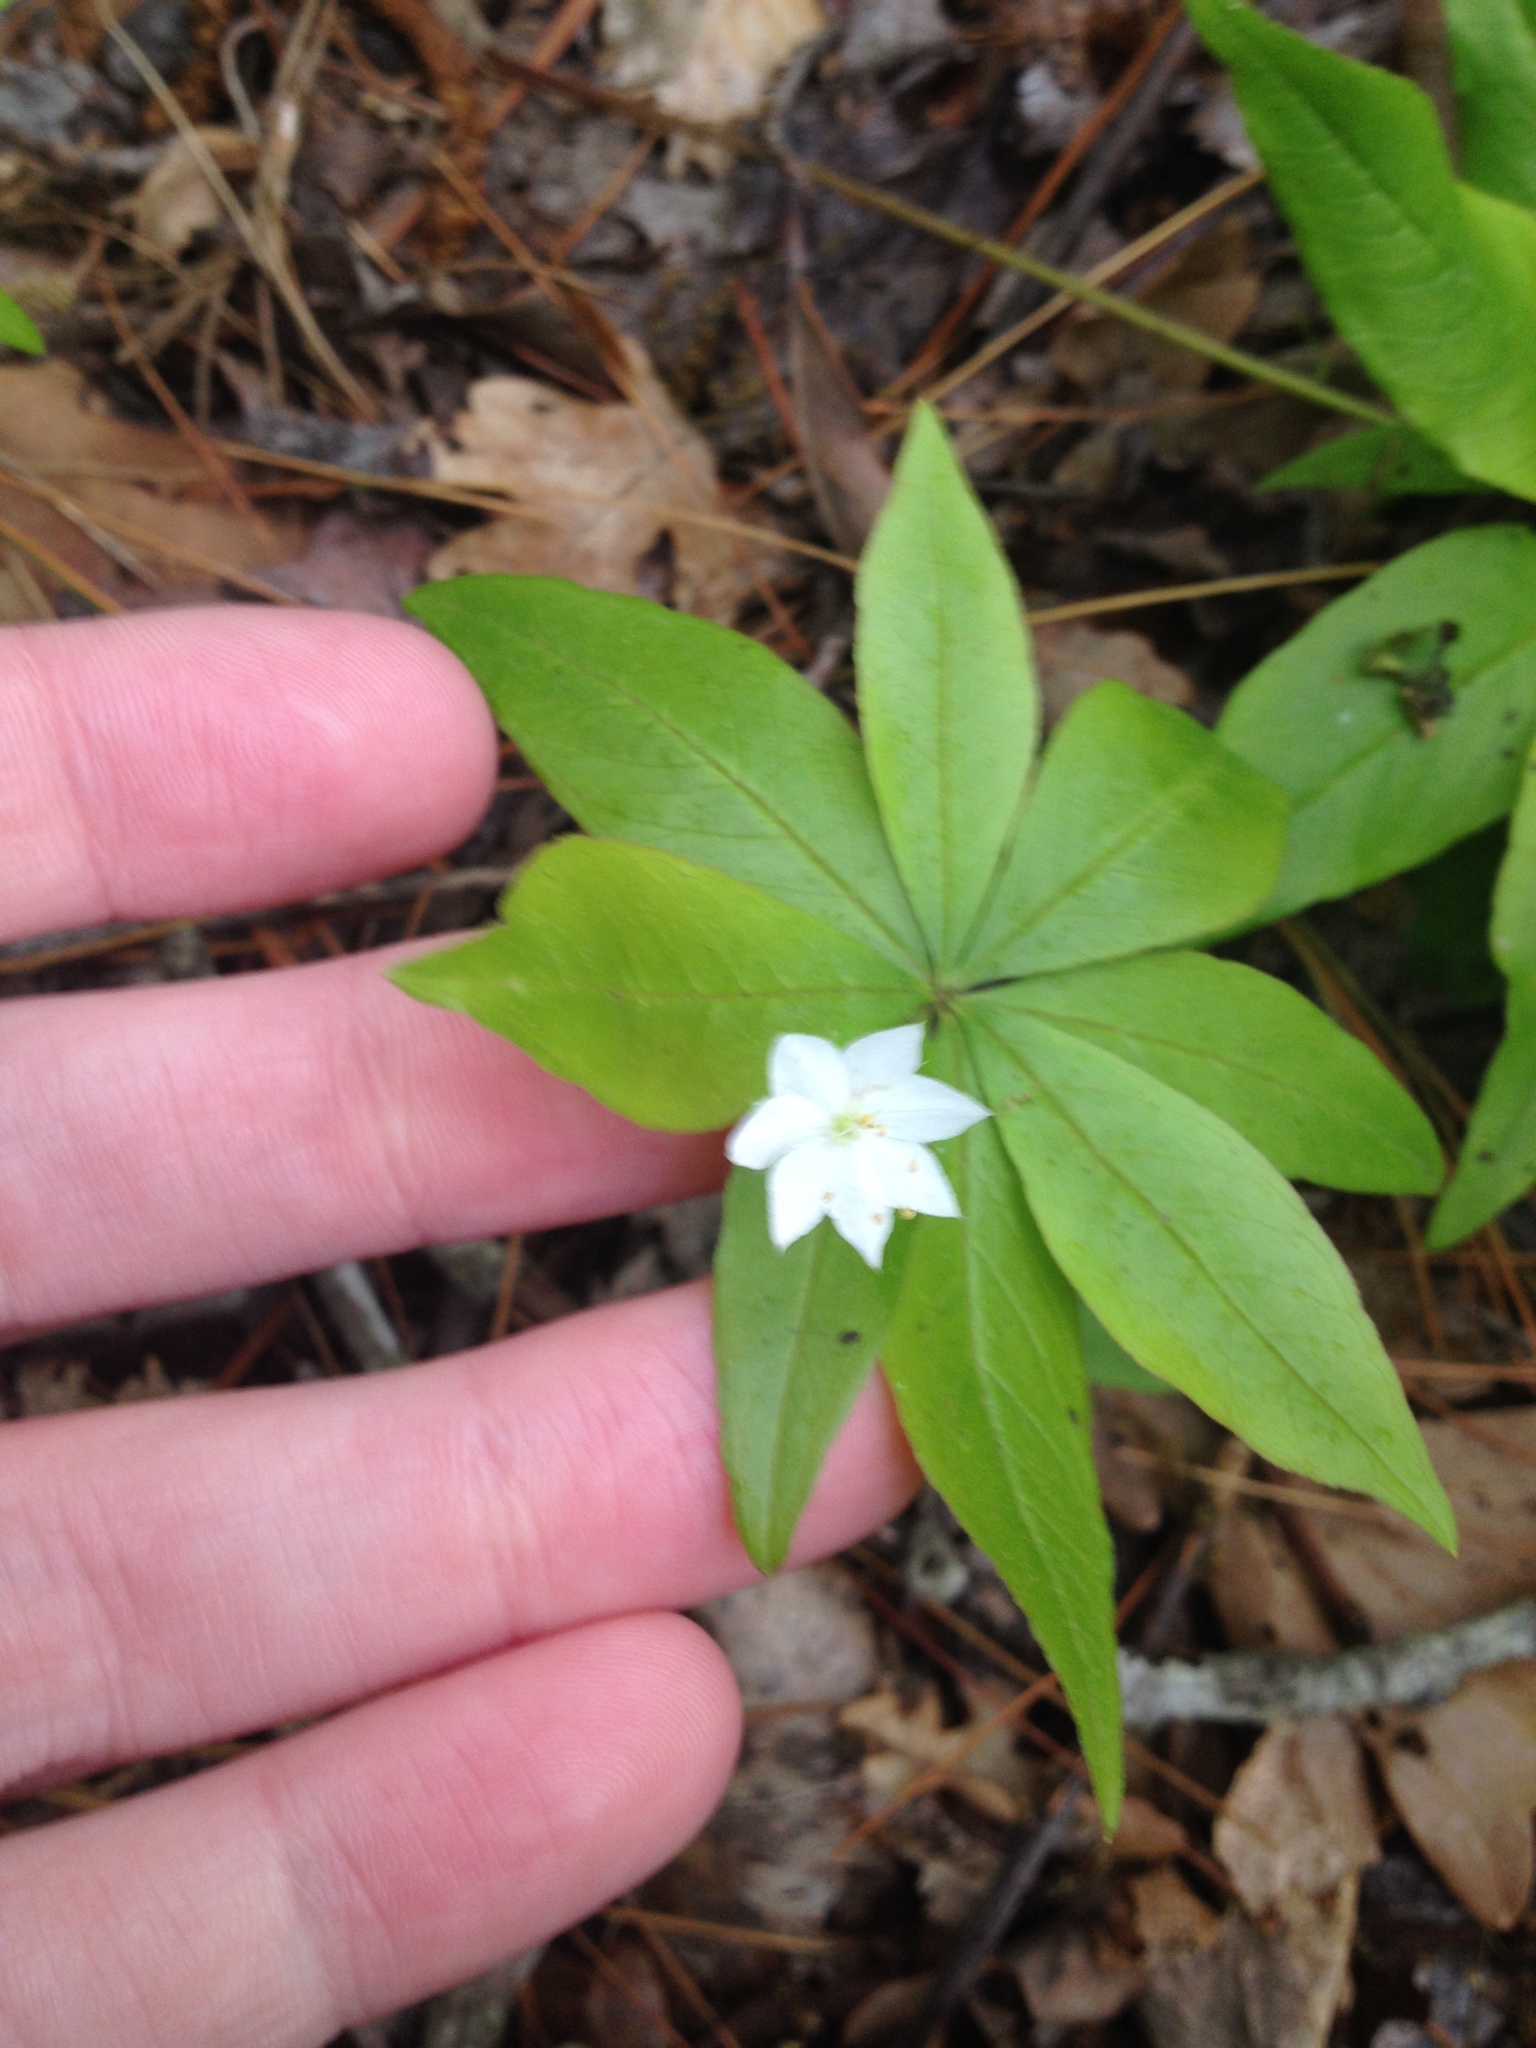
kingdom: Plantae
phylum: Tracheophyta
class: Magnoliopsida
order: Ericales
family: Primulaceae
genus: Lysimachia
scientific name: Lysimachia borealis
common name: American starflower
